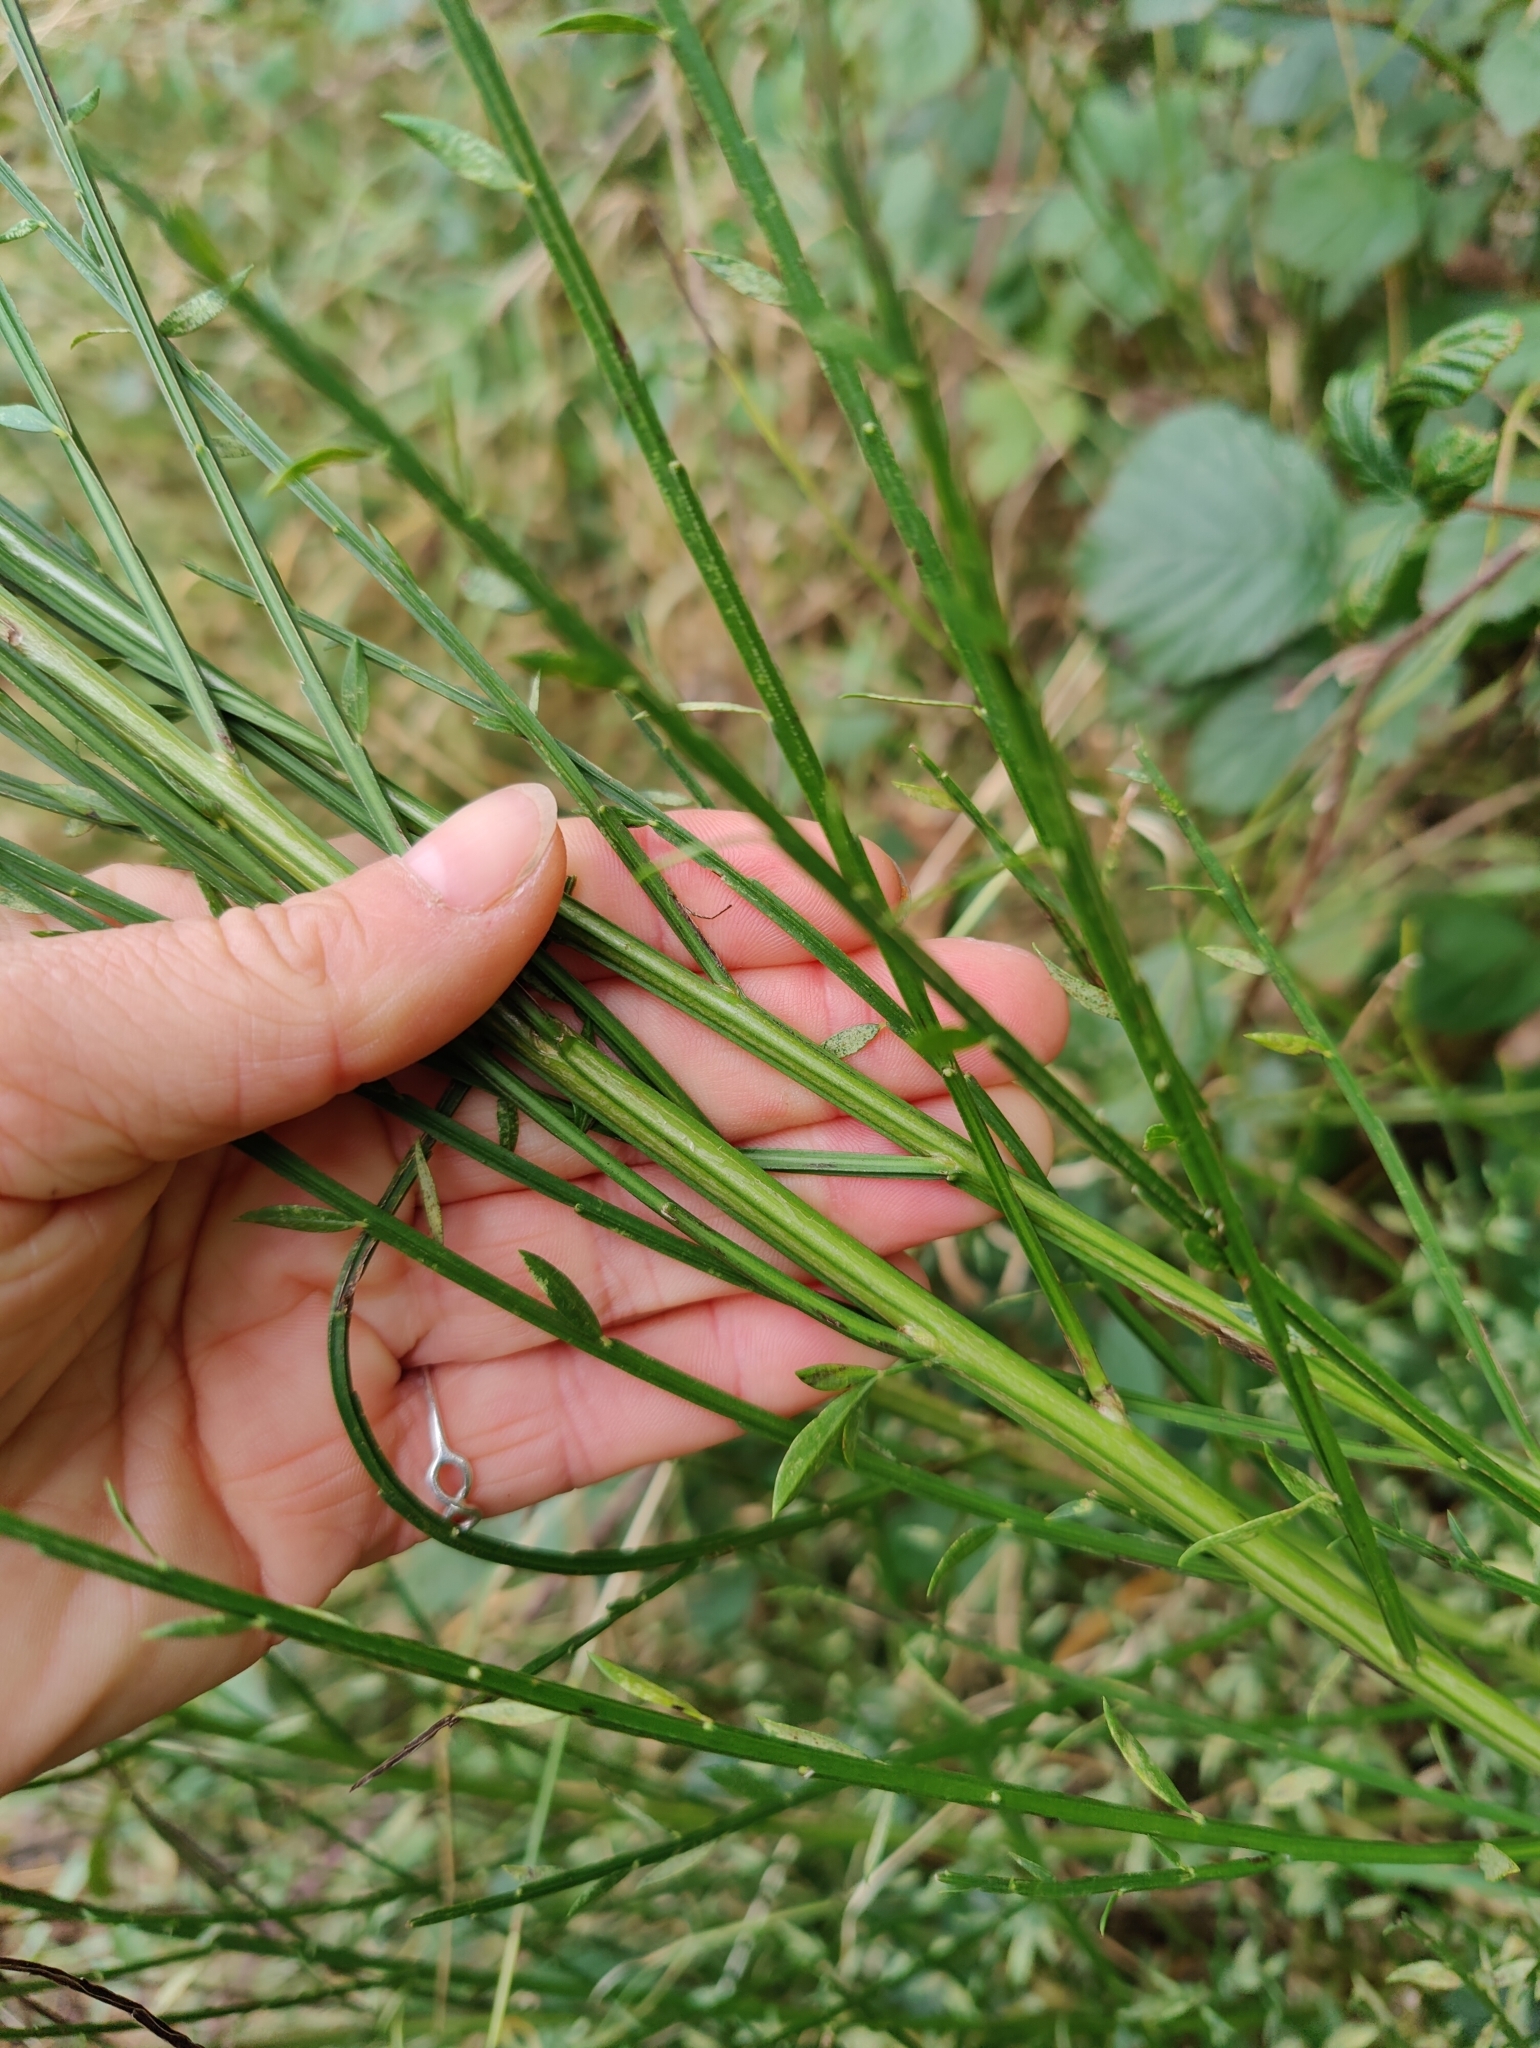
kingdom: Plantae
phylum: Tracheophyta
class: Magnoliopsida
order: Fabales
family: Fabaceae
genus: Cytisus
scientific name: Cytisus scoparius
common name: Scotch broom
